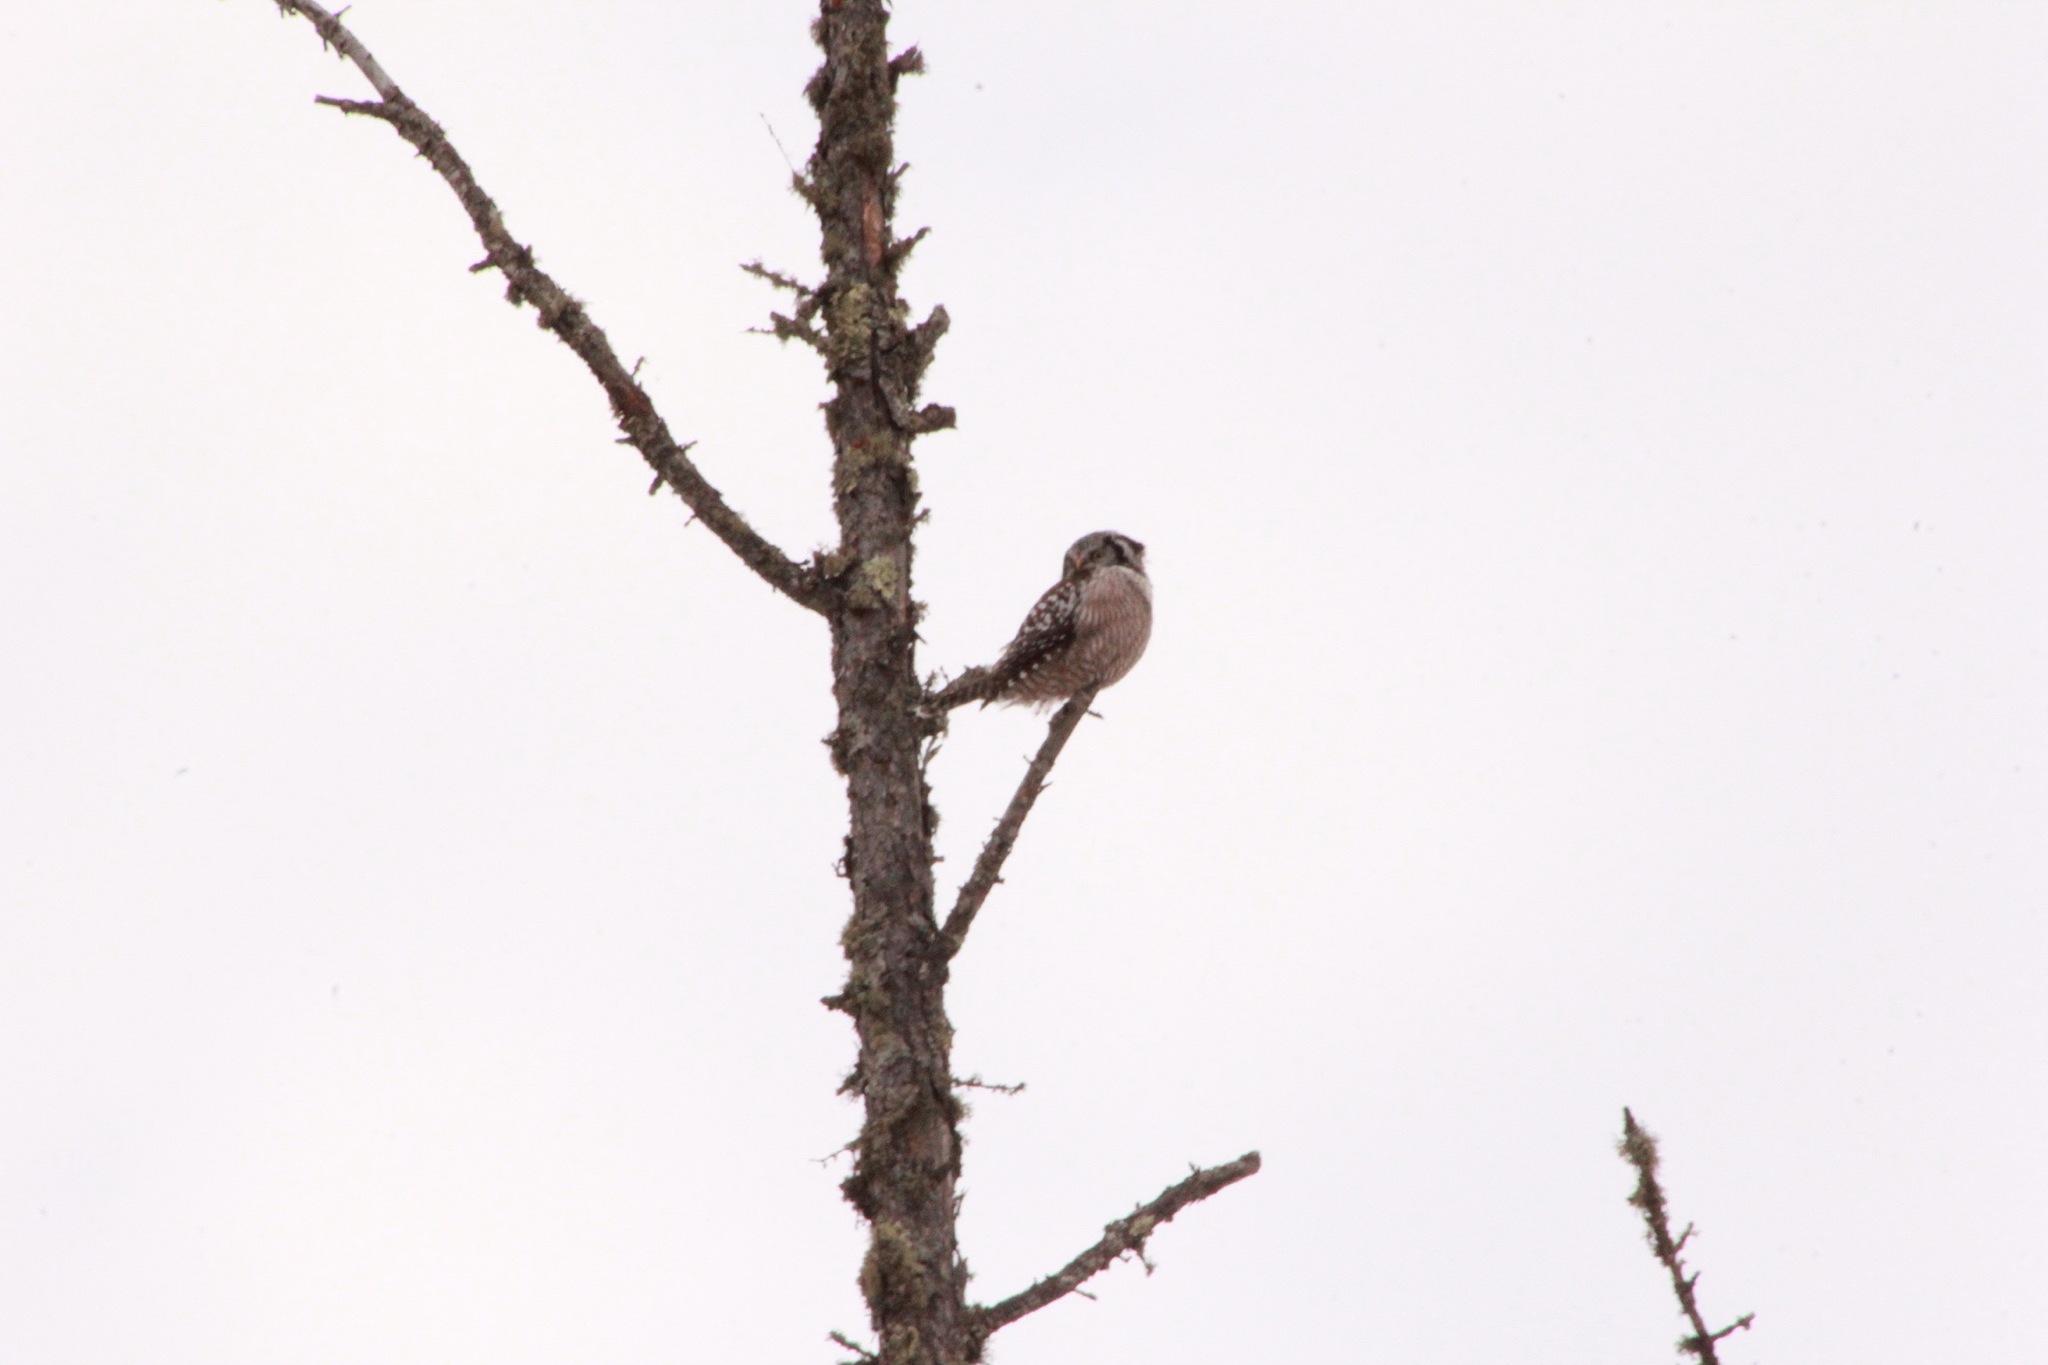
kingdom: Animalia
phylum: Chordata
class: Aves
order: Strigiformes
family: Strigidae
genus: Surnia
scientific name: Surnia ulula
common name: Northern hawk-owl
